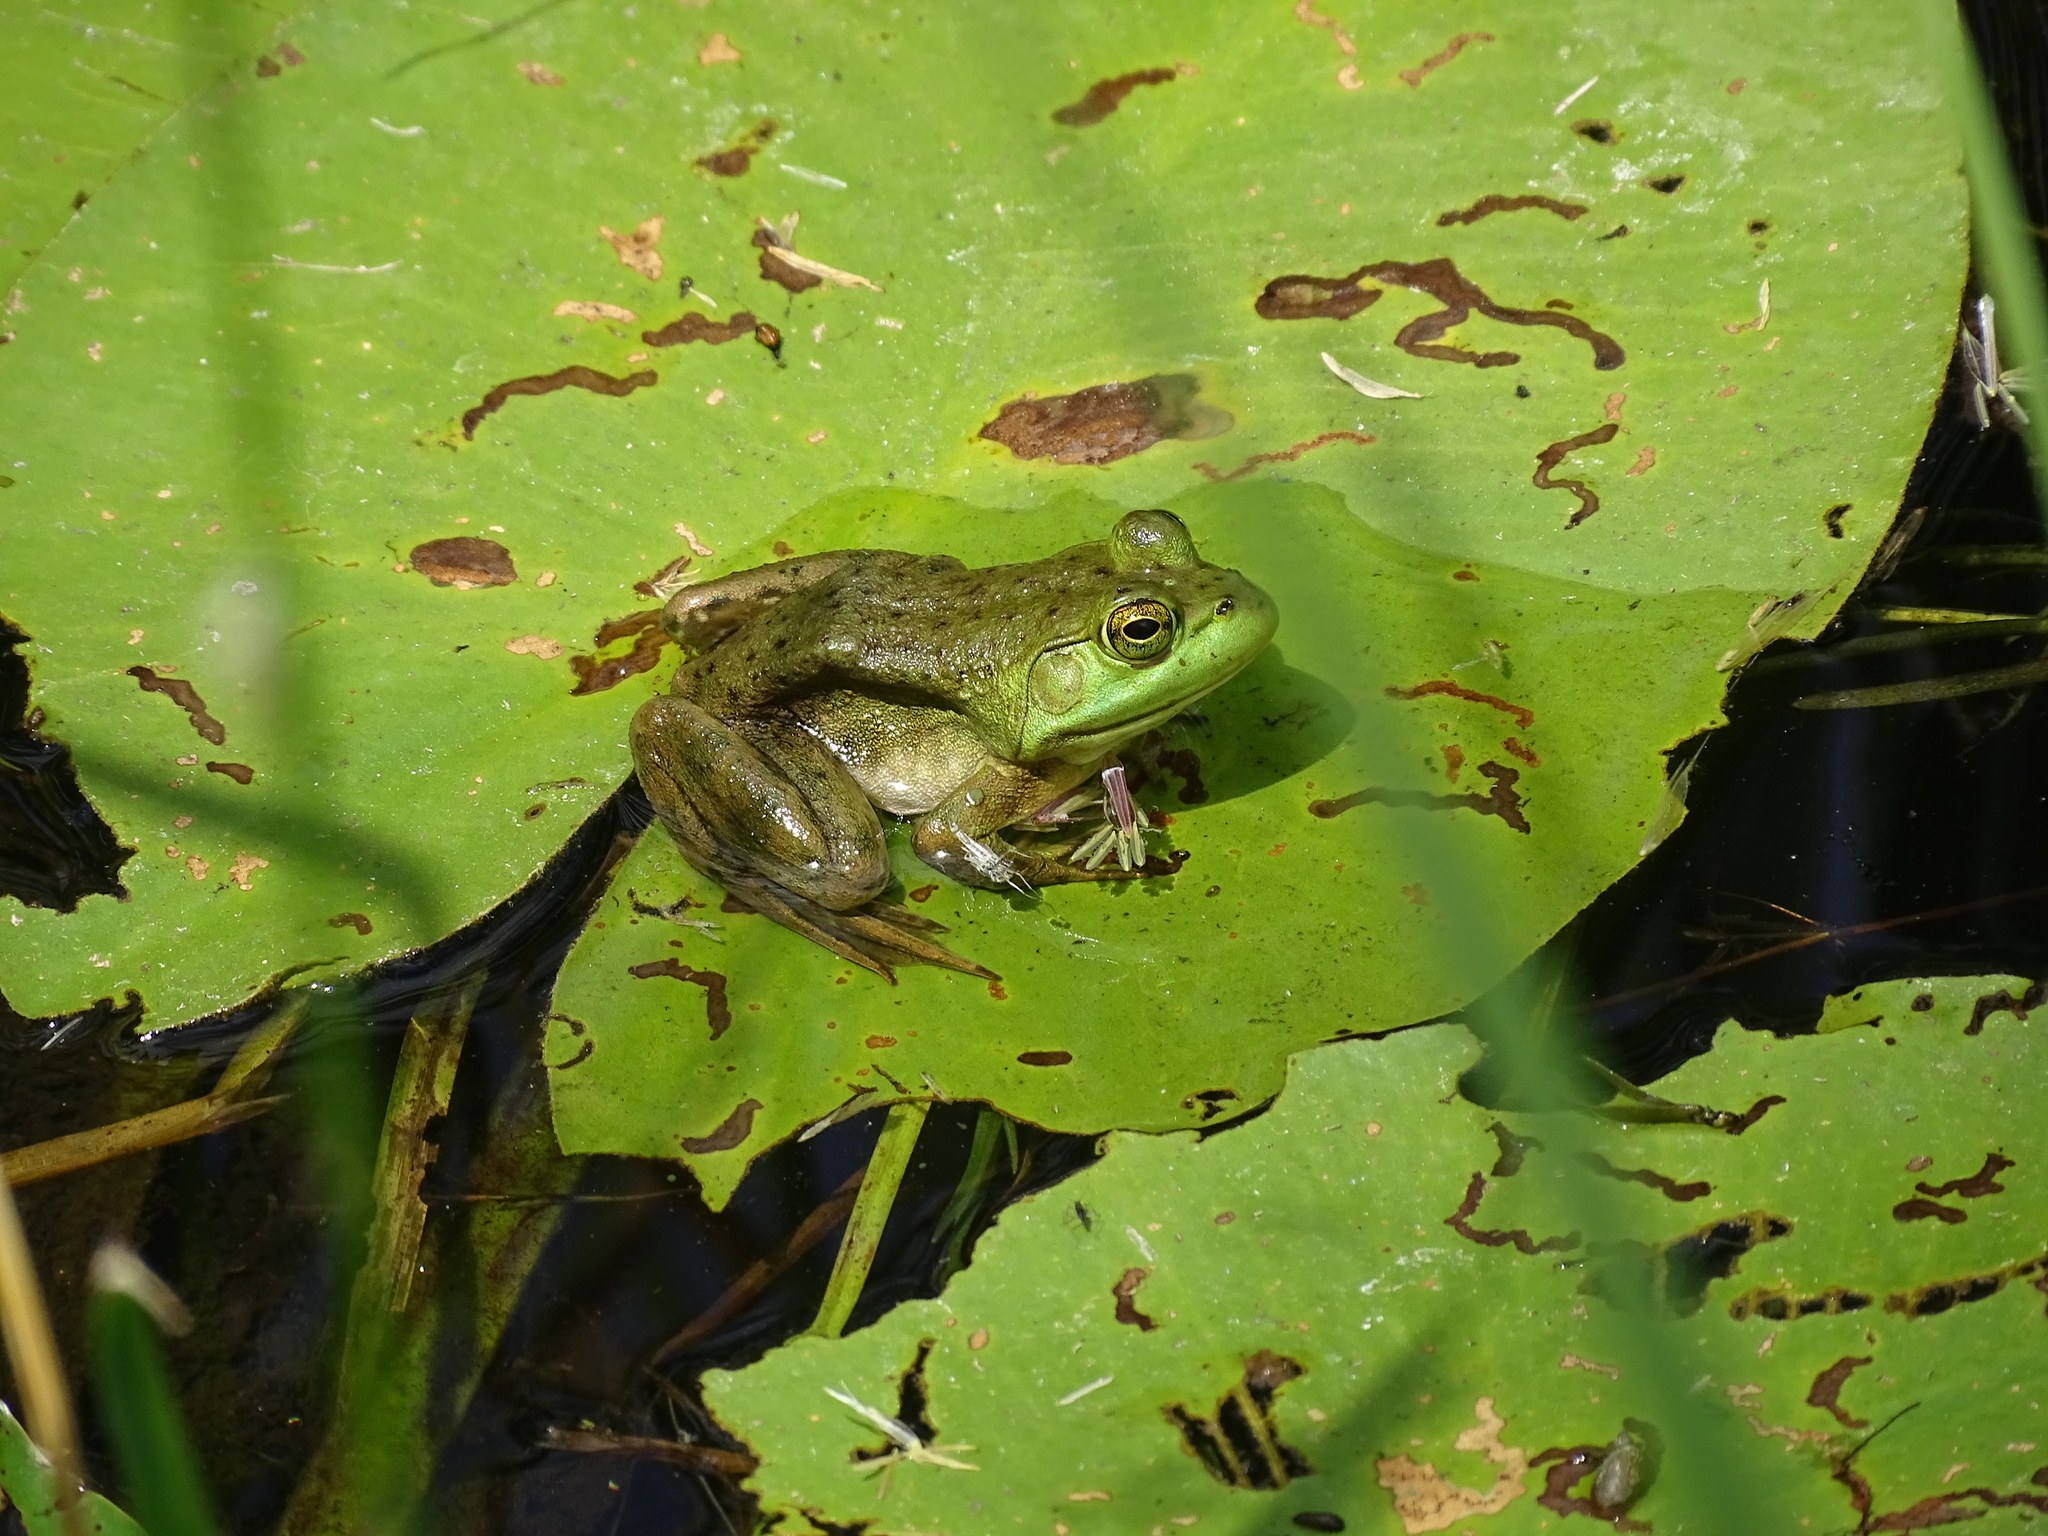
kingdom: Animalia
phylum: Chordata
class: Amphibia
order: Anura
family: Ranidae
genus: Lithobates
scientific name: Lithobates catesbeianus
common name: American bullfrog
